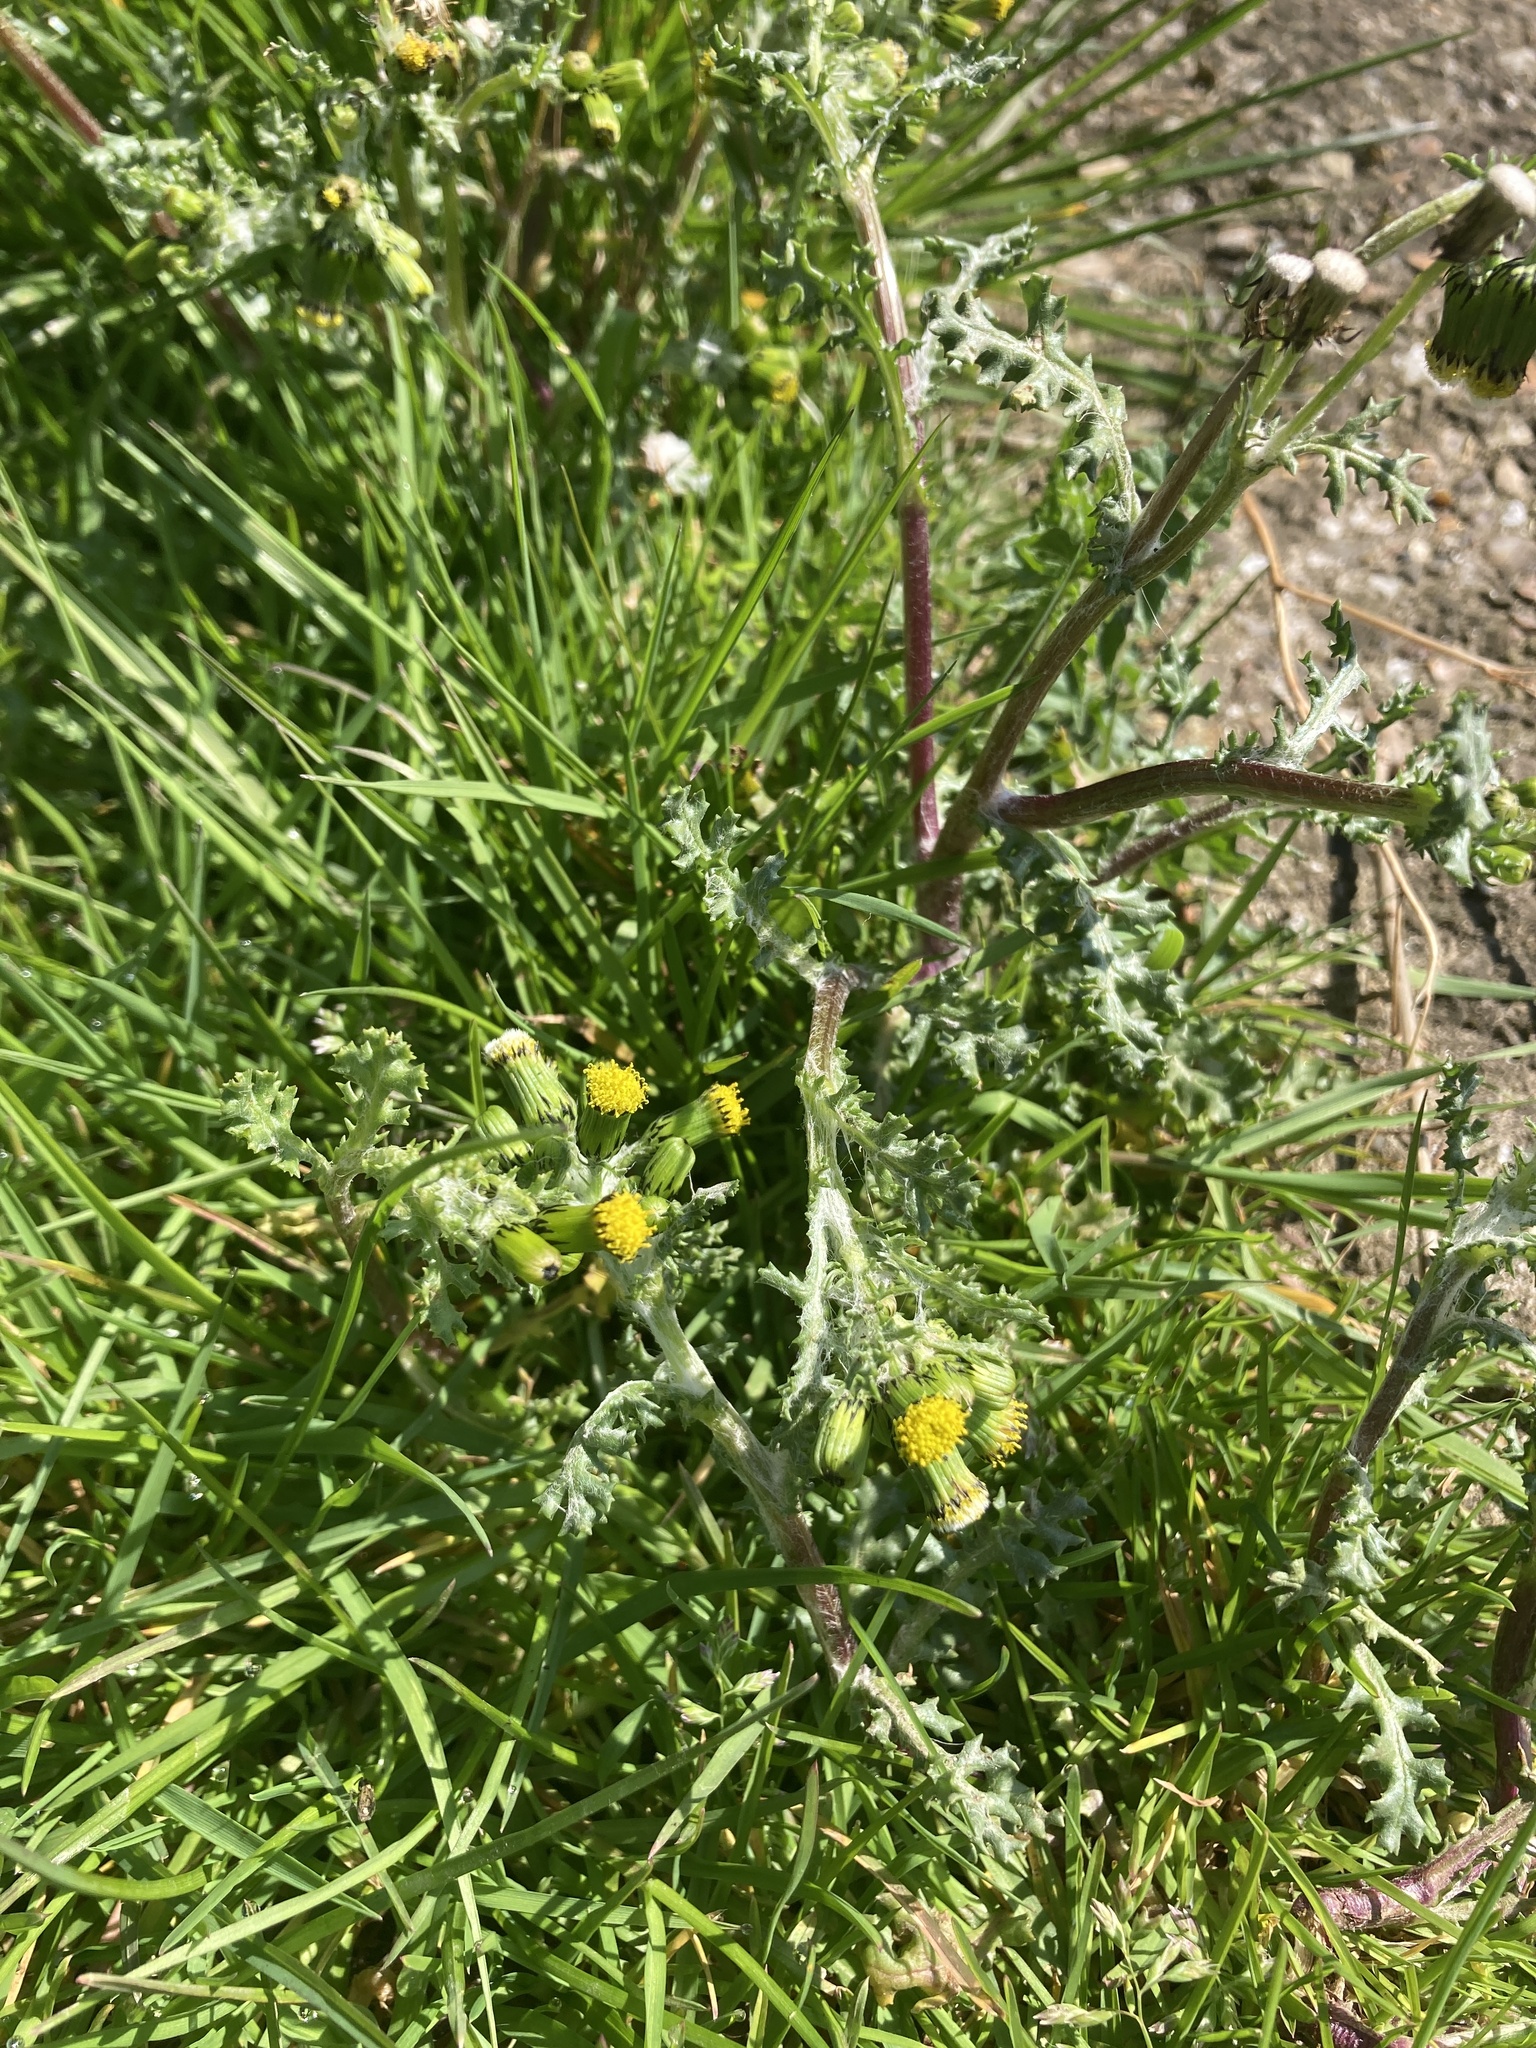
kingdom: Plantae
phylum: Tracheophyta
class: Magnoliopsida
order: Asterales
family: Asteraceae
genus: Senecio
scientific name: Senecio vulgaris
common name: Old-man-in-the-spring
